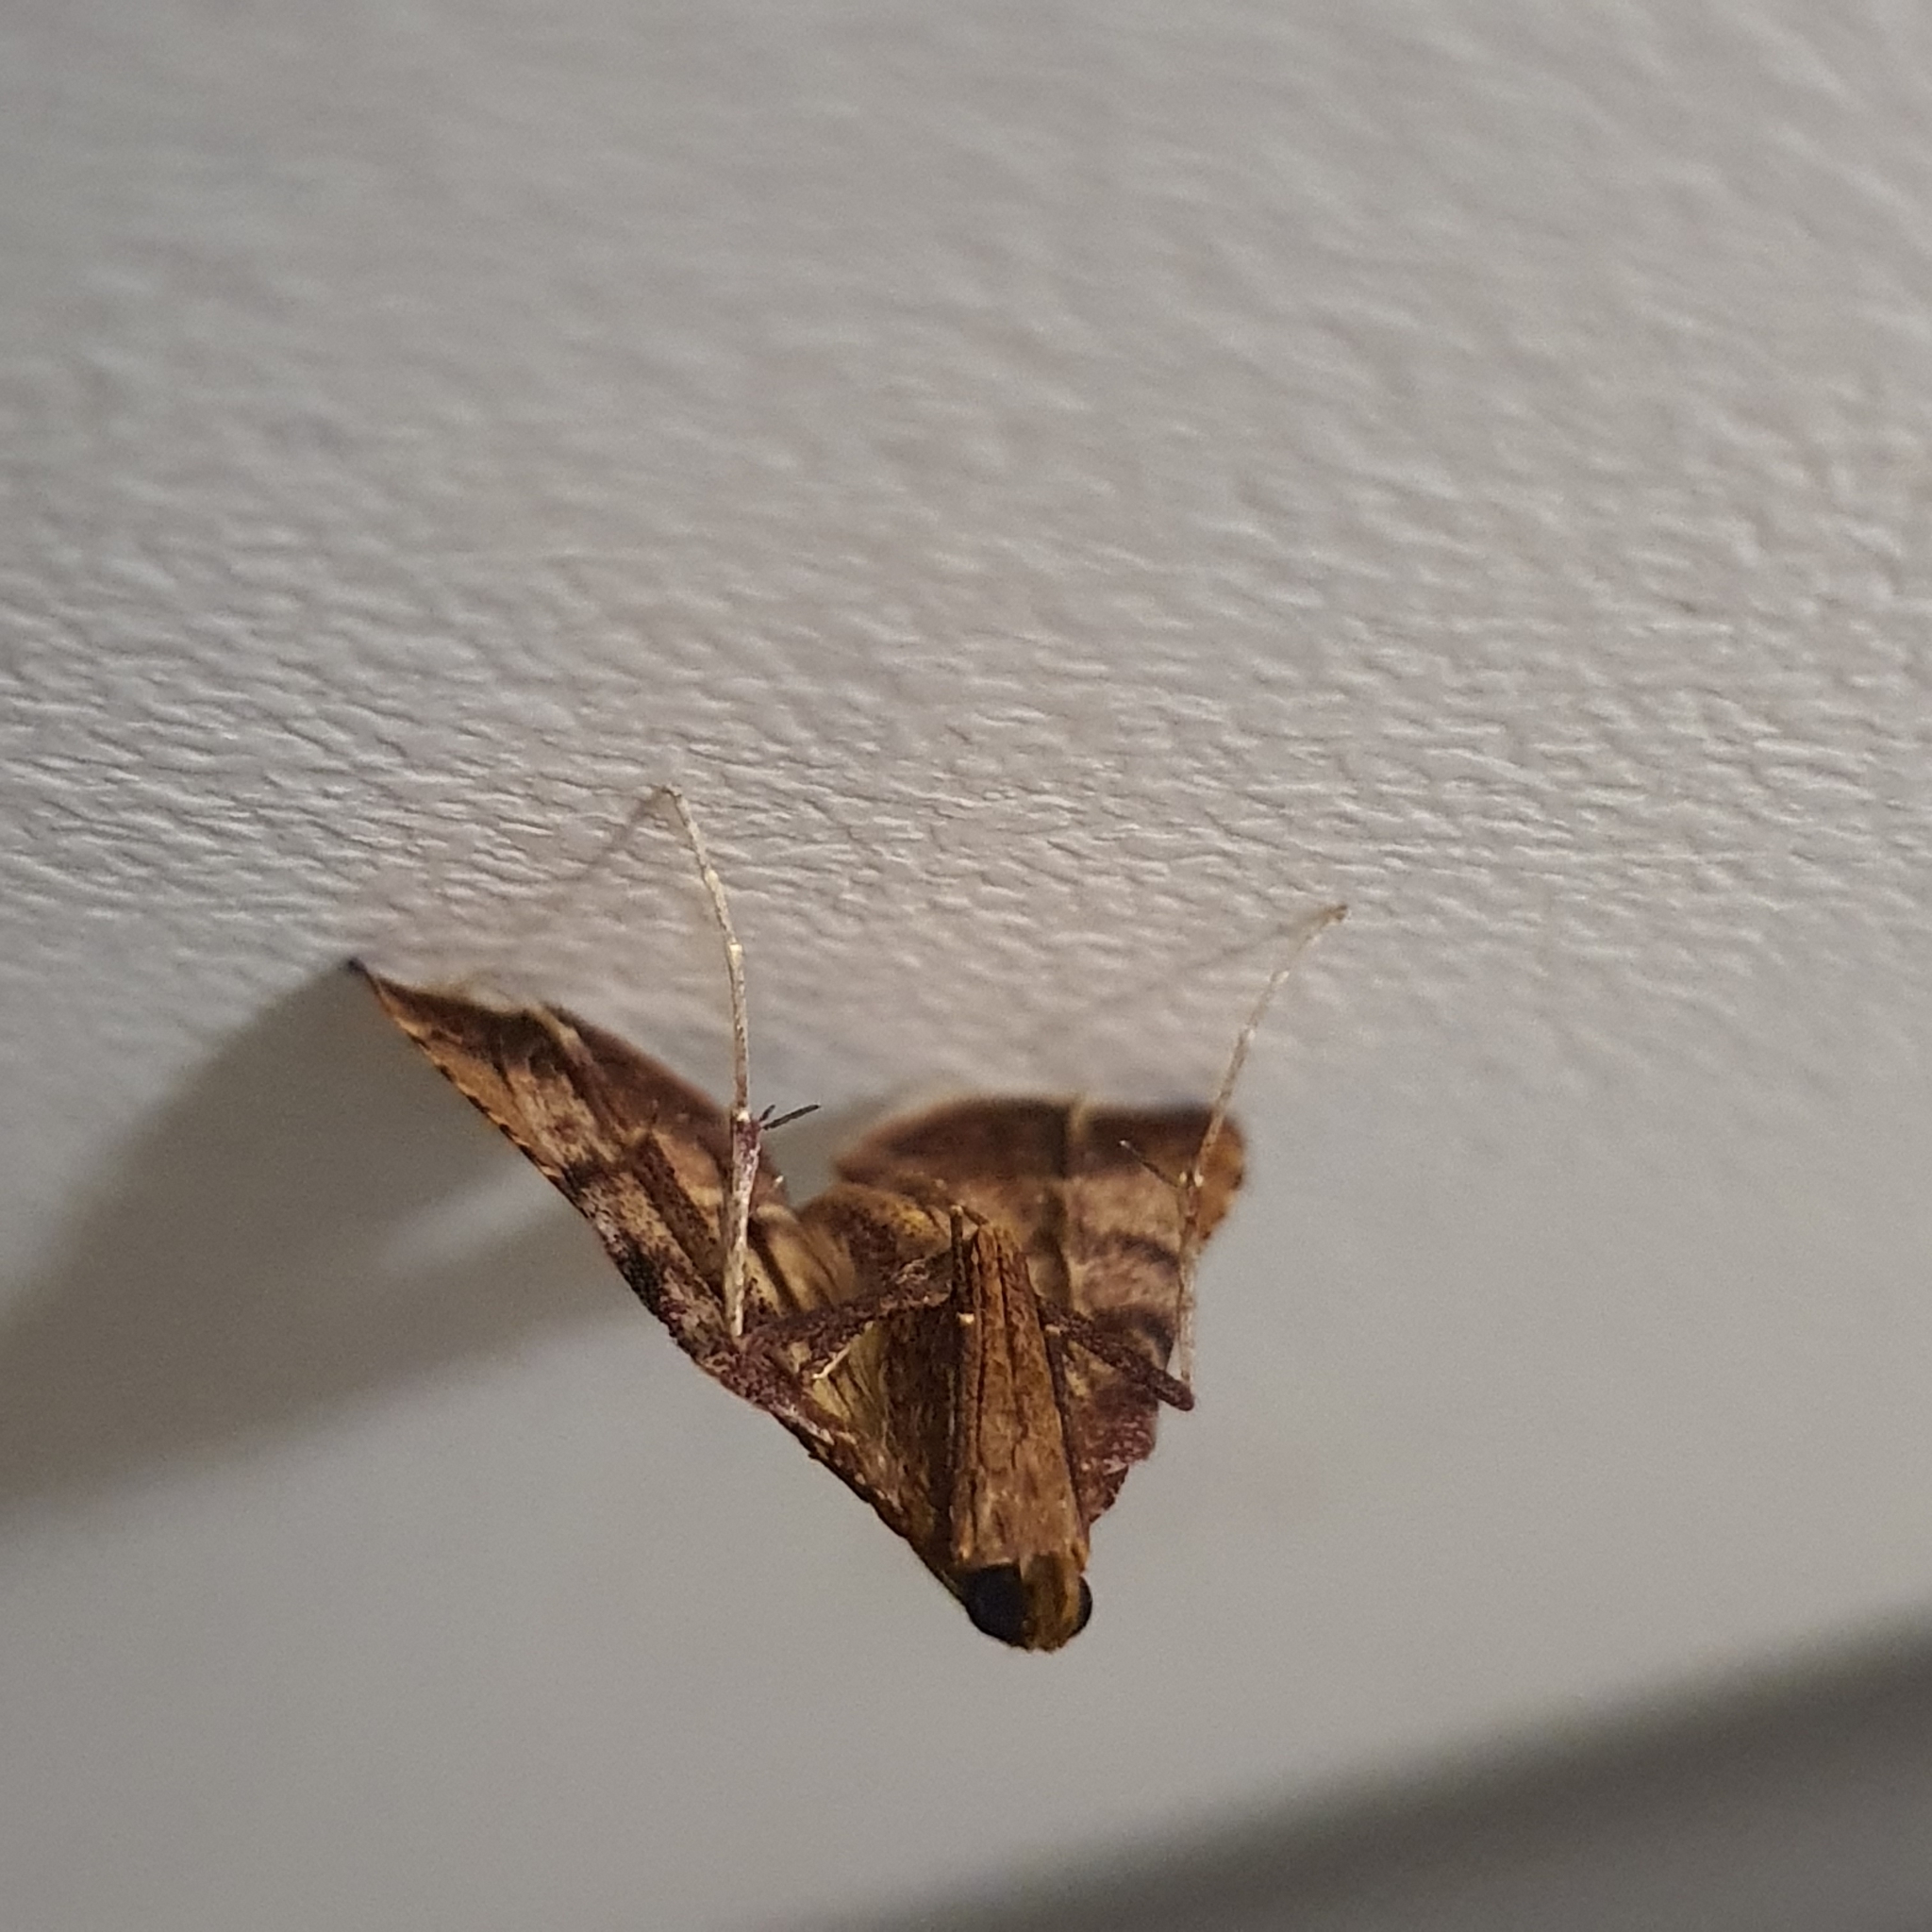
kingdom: Animalia
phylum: Arthropoda
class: Insecta
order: Lepidoptera
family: Pyralidae
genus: Endotricha
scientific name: Endotricha pyrosalis
